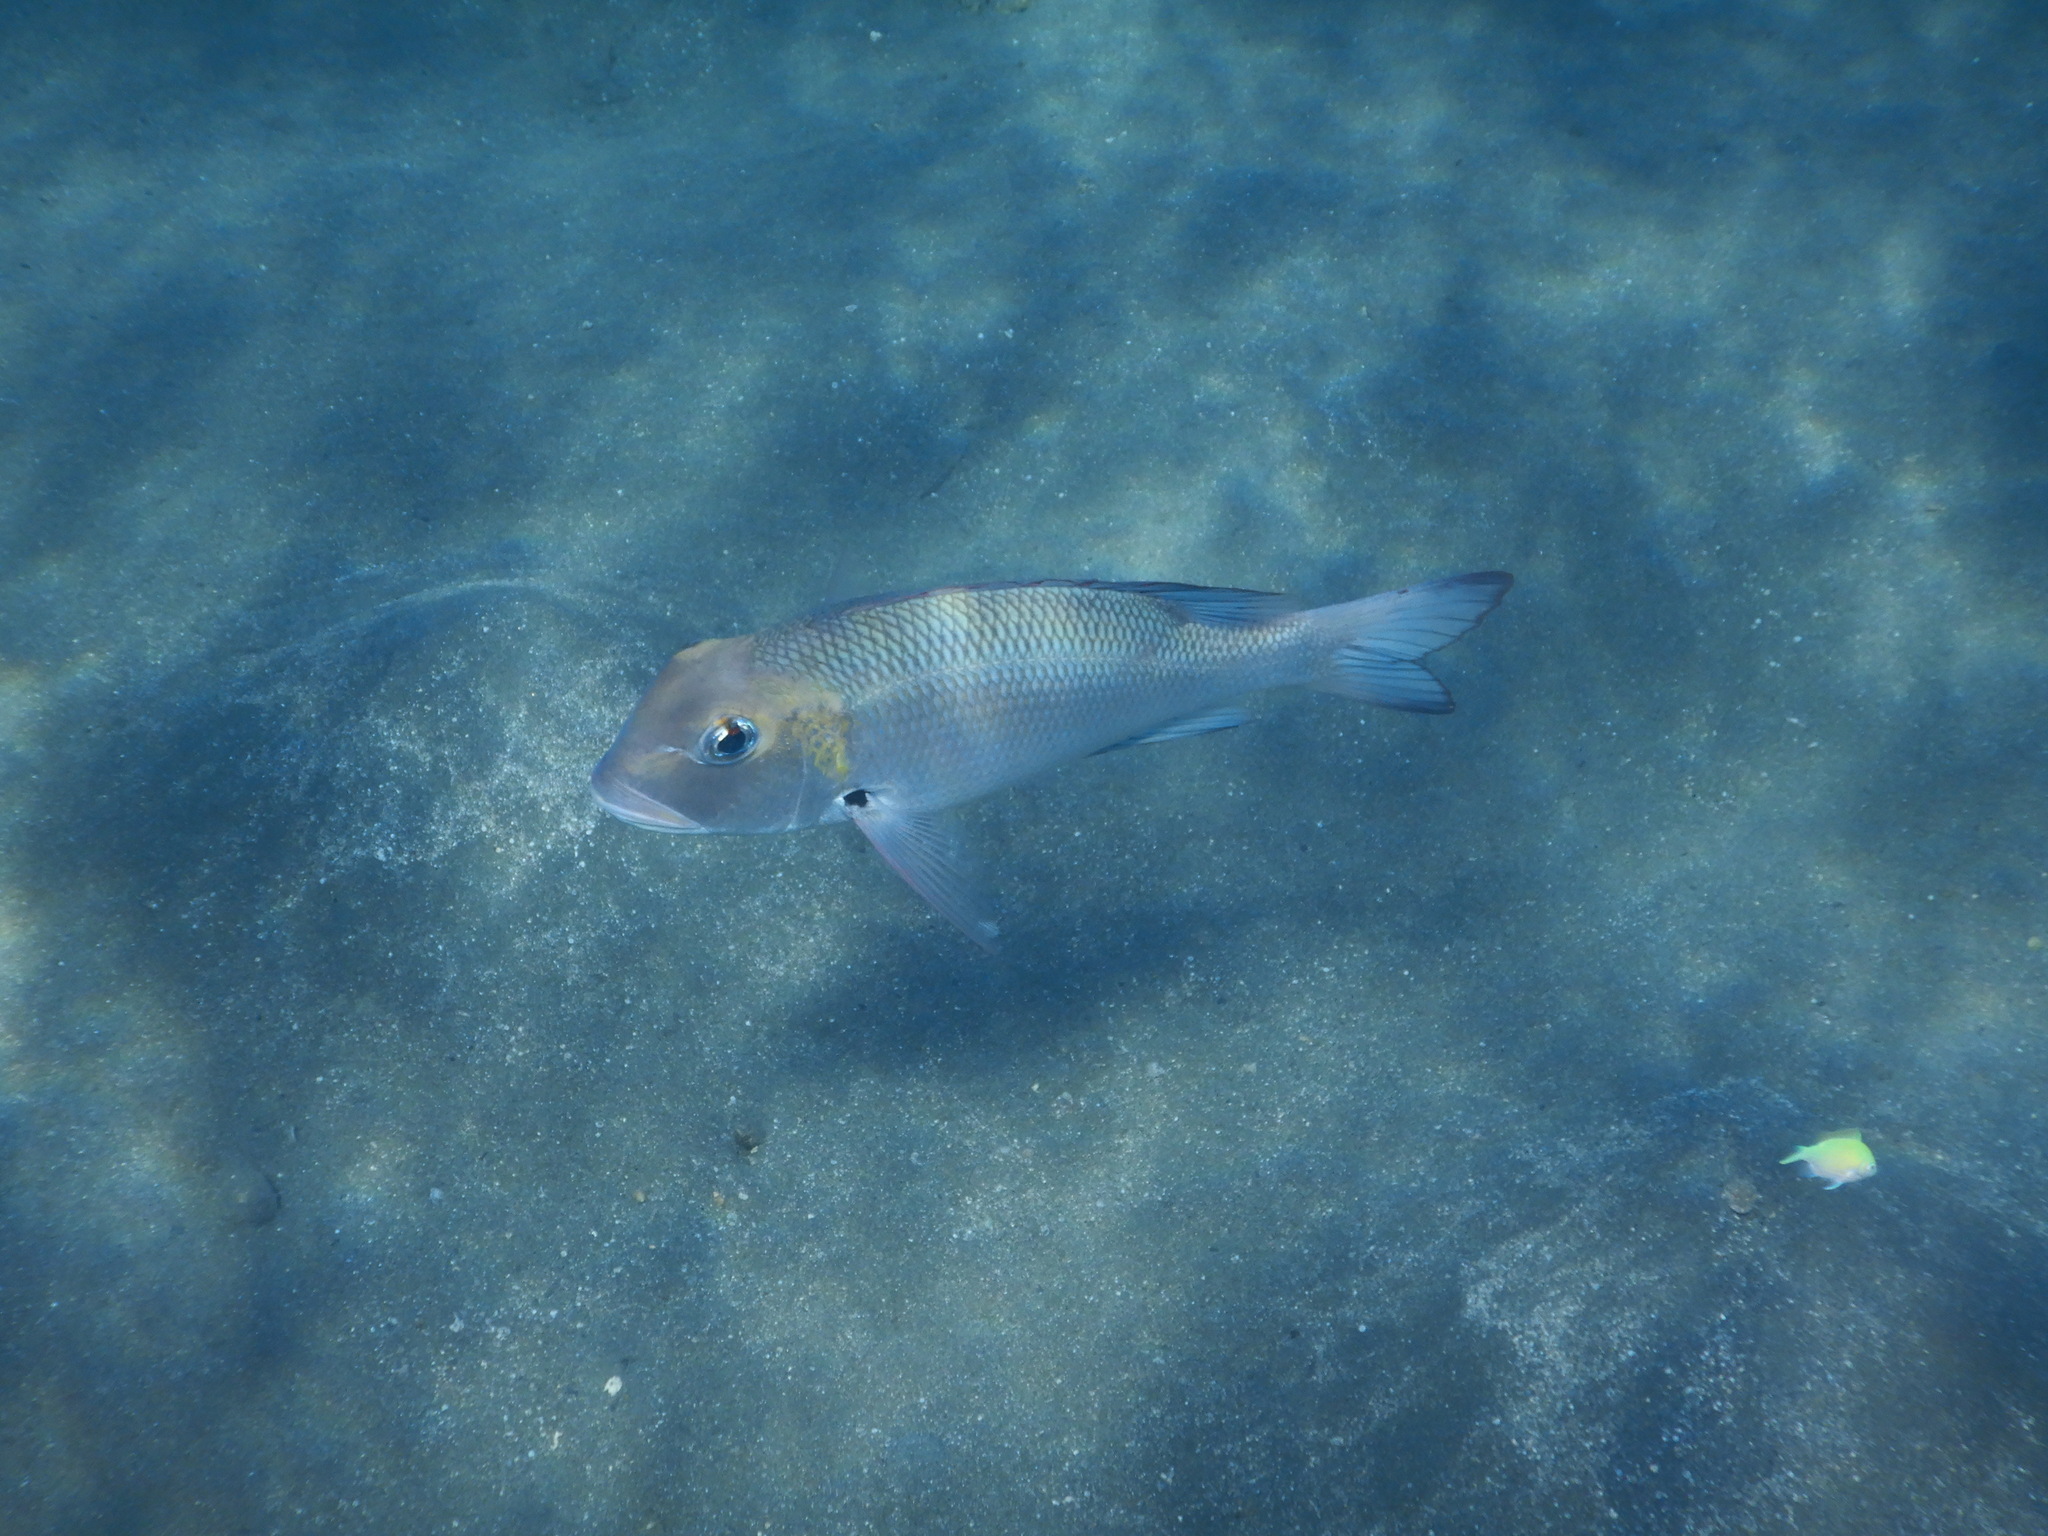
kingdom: Animalia
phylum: Chordata
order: Perciformes
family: Lethrinidae
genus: Monotaxis
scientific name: Monotaxis grandoculis
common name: Bigeye emperor
